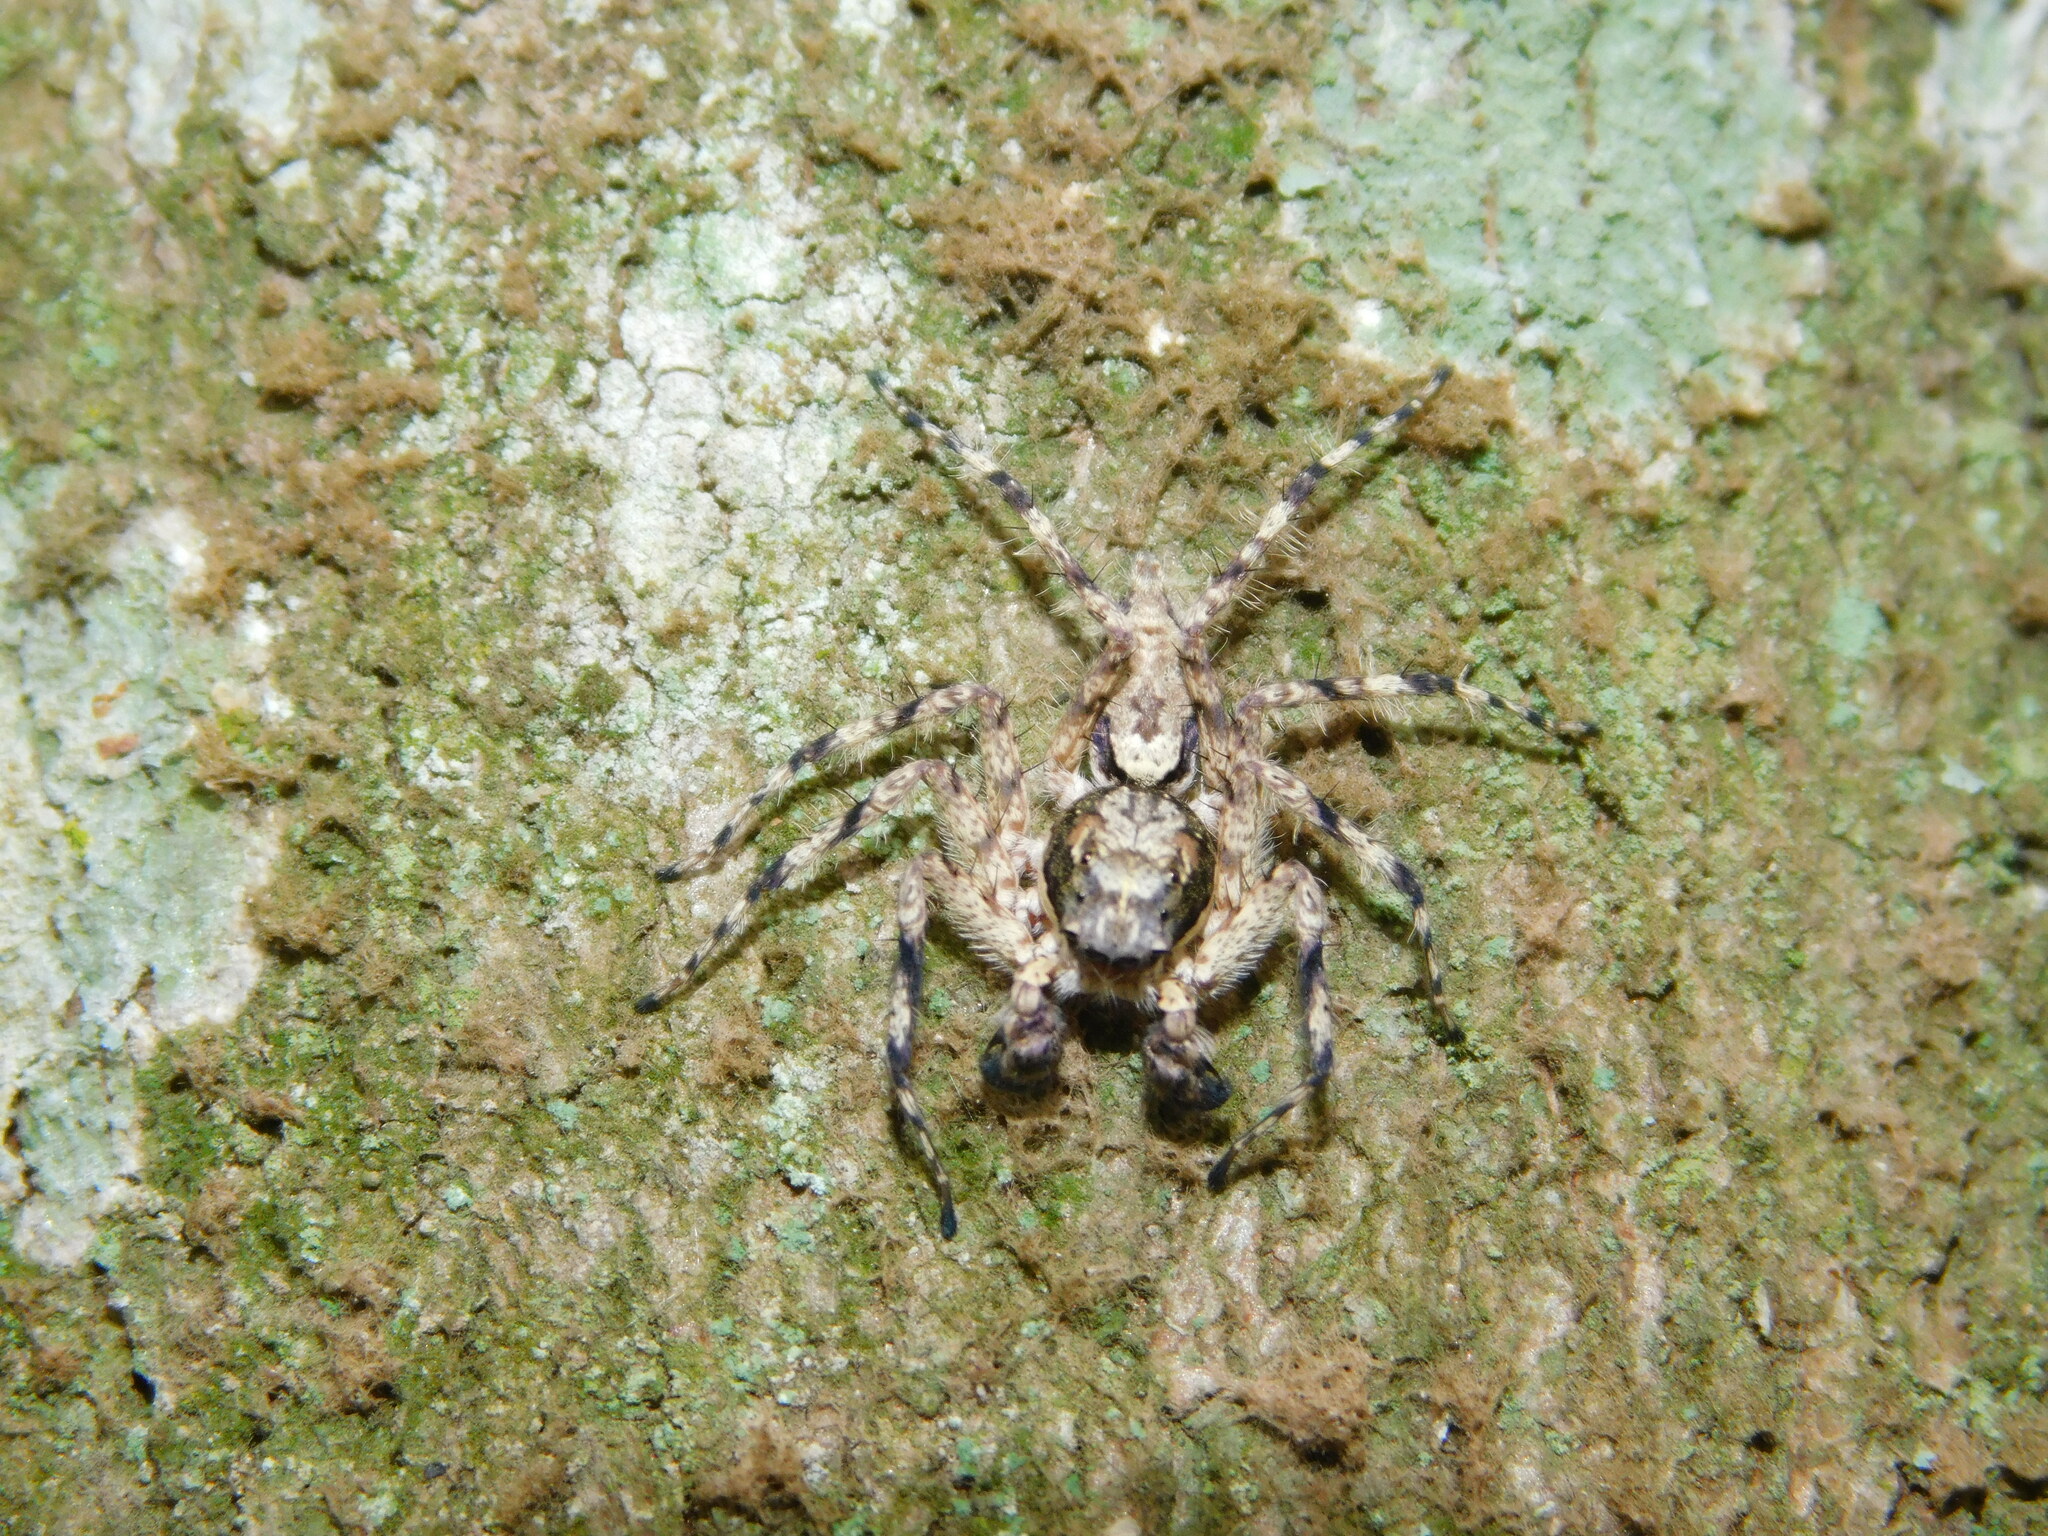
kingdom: Animalia
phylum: Arthropoda
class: Arachnida
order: Araneae
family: Salticidae
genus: Phaeacius
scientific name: Phaeacius fimbriatus
